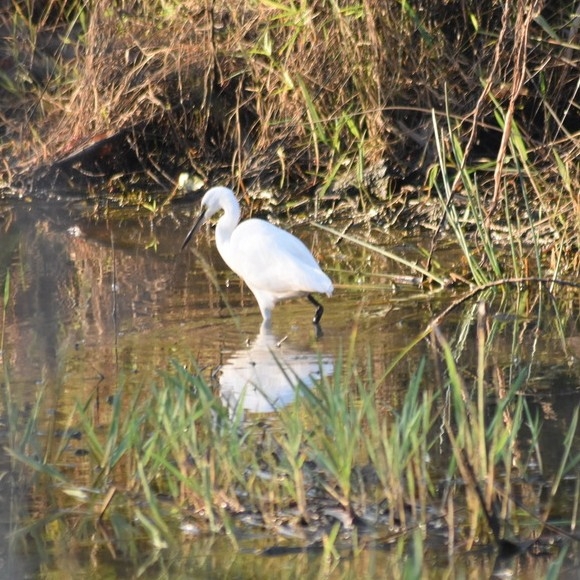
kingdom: Animalia
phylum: Chordata
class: Aves
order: Pelecaniformes
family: Ardeidae
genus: Egretta
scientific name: Egretta garzetta
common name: Little egret
